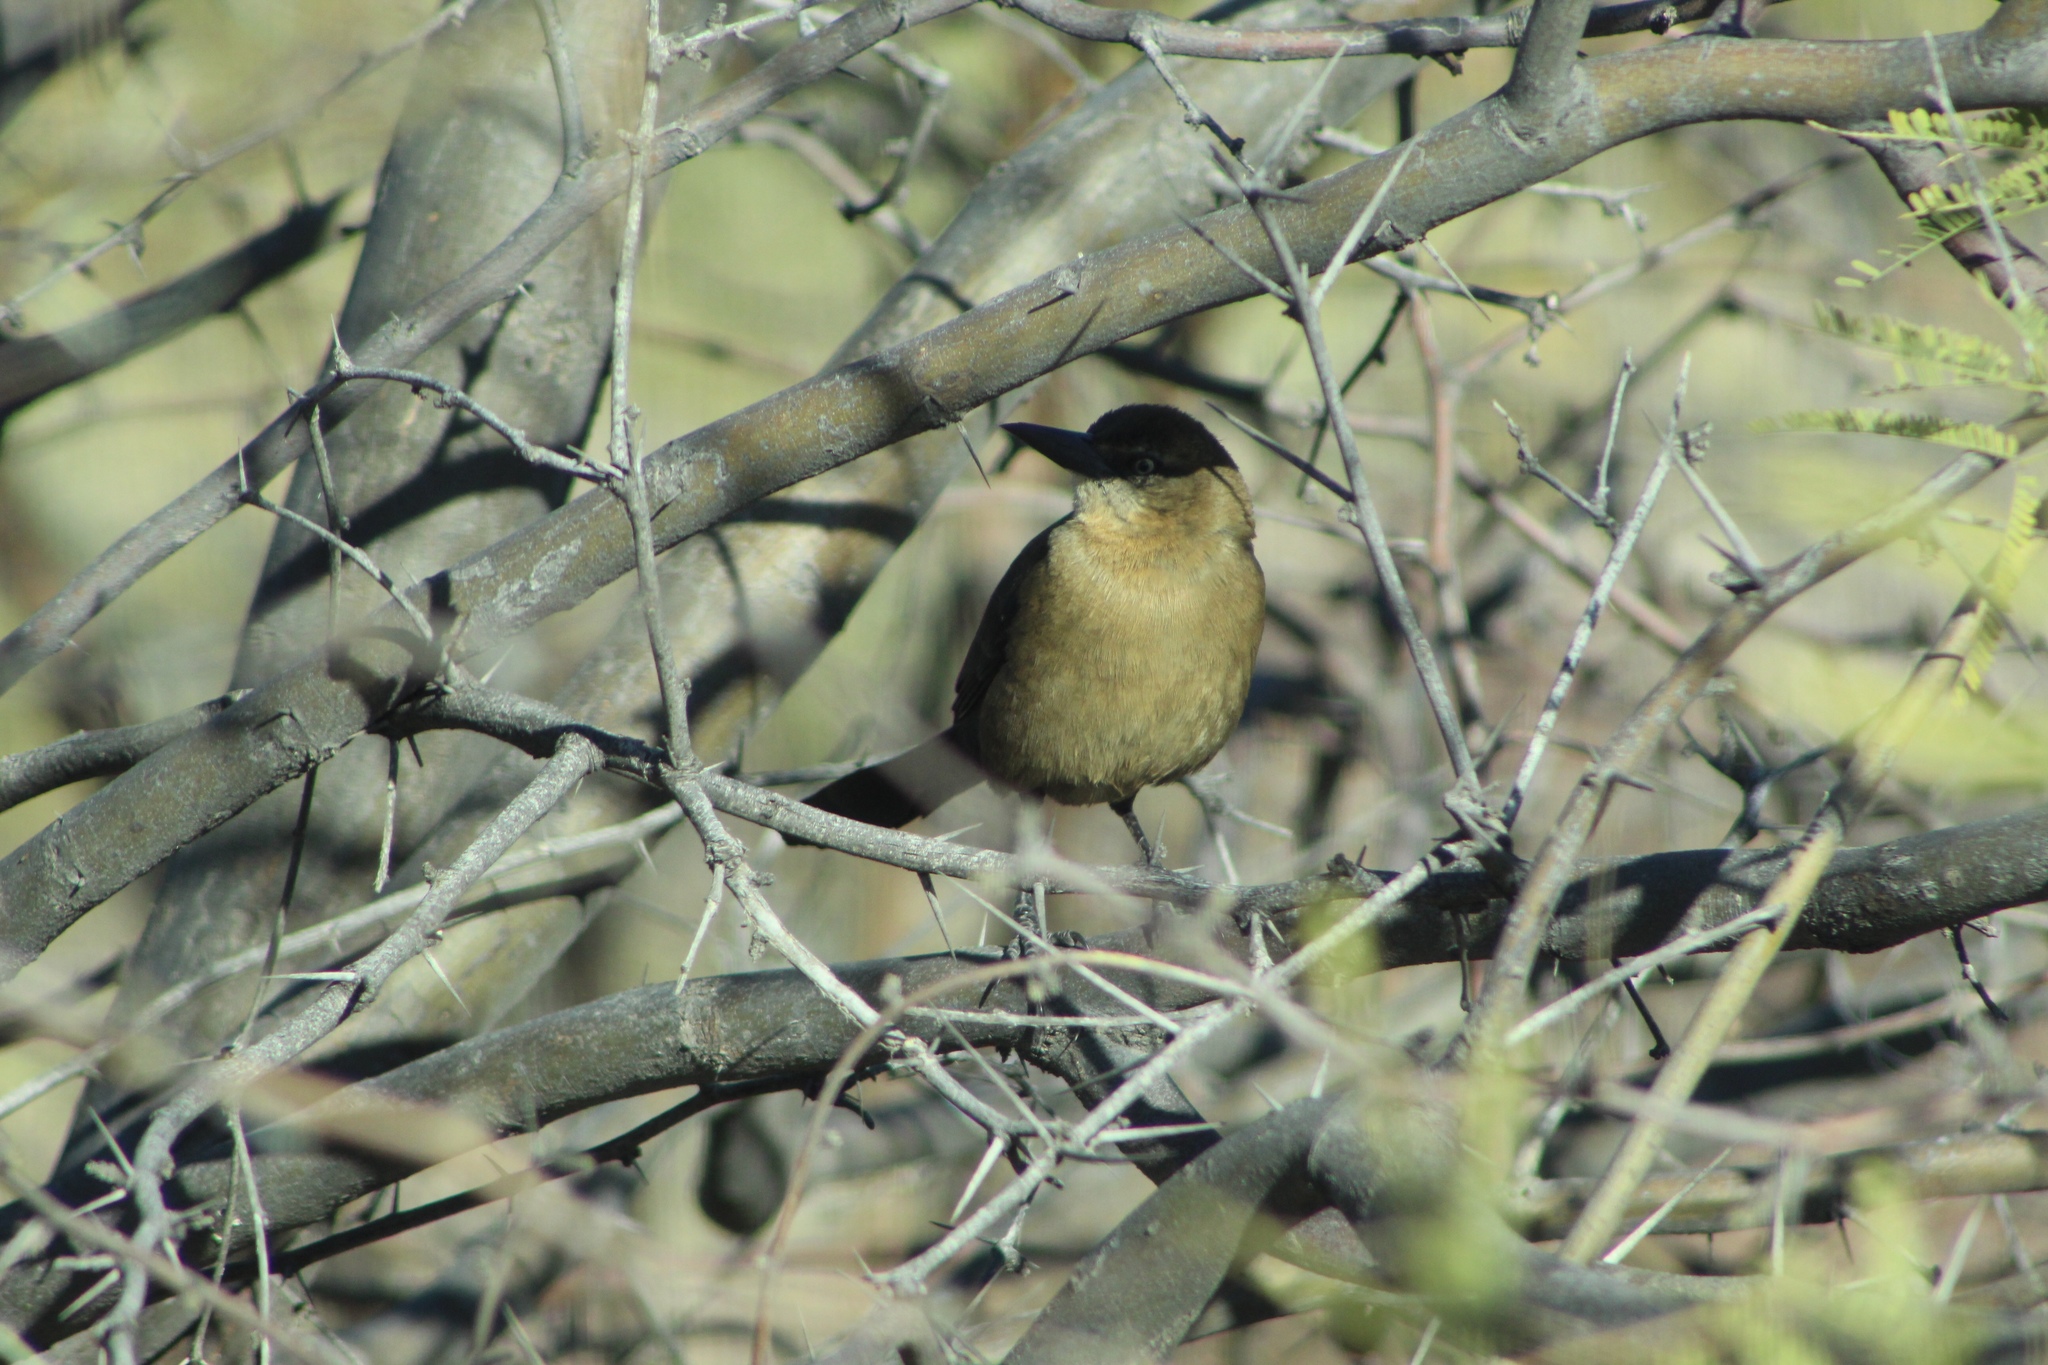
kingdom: Animalia
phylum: Chordata
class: Aves
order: Passeriformes
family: Icteridae
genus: Quiscalus
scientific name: Quiscalus mexicanus
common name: Great-tailed grackle
